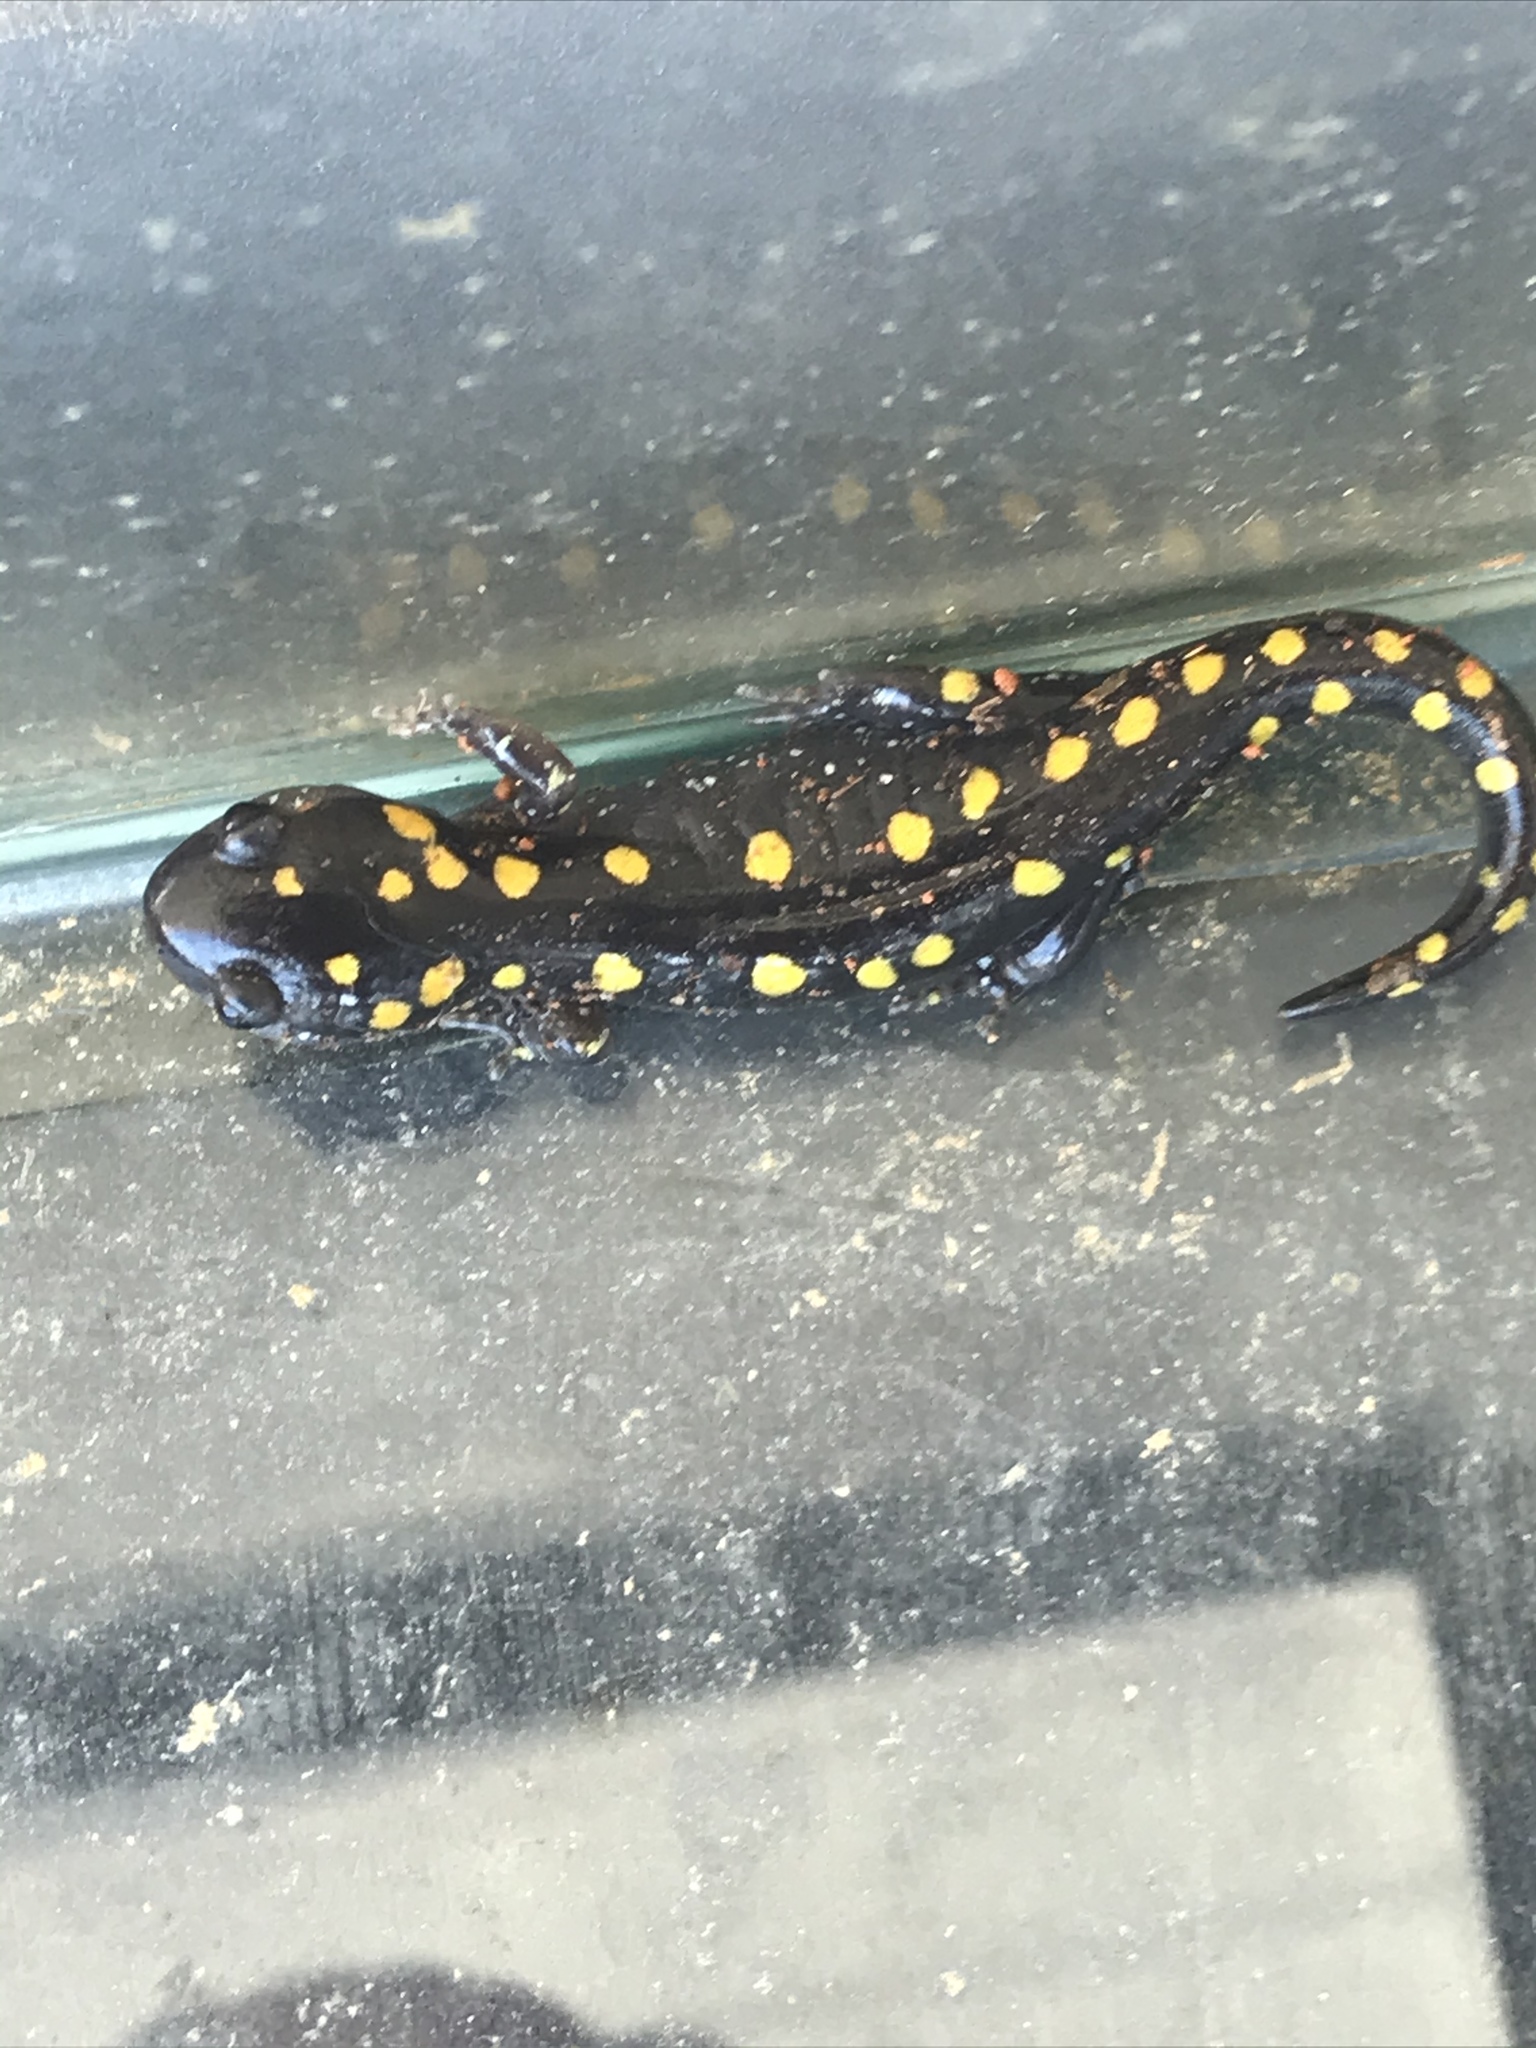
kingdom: Animalia
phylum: Chordata
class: Amphibia
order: Caudata
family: Ambystomatidae
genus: Ambystoma
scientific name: Ambystoma maculatum
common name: Spotted salamander
